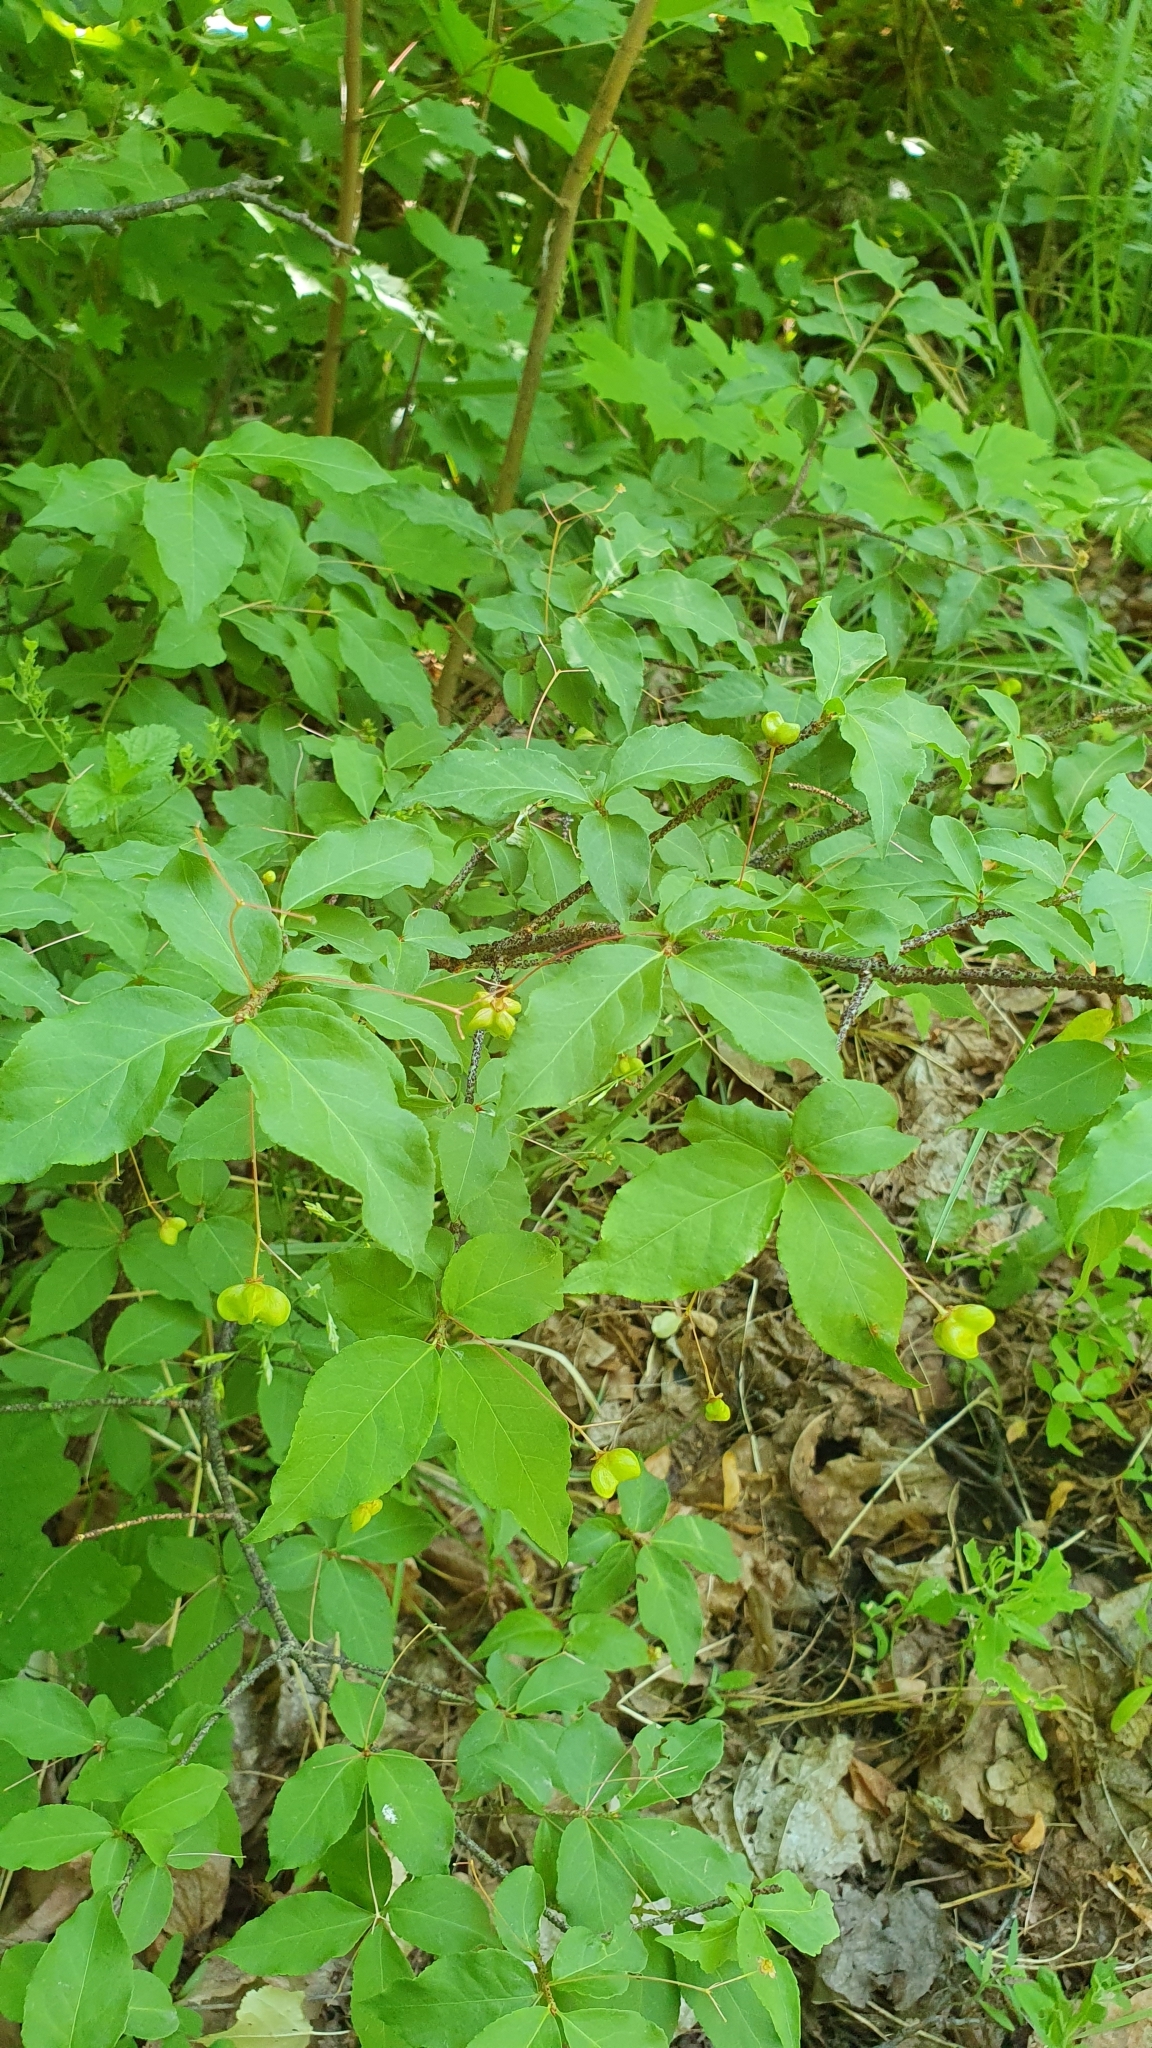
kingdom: Plantae
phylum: Tracheophyta
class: Magnoliopsida
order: Celastrales
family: Celastraceae
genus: Euonymus
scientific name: Euonymus verrucosus
